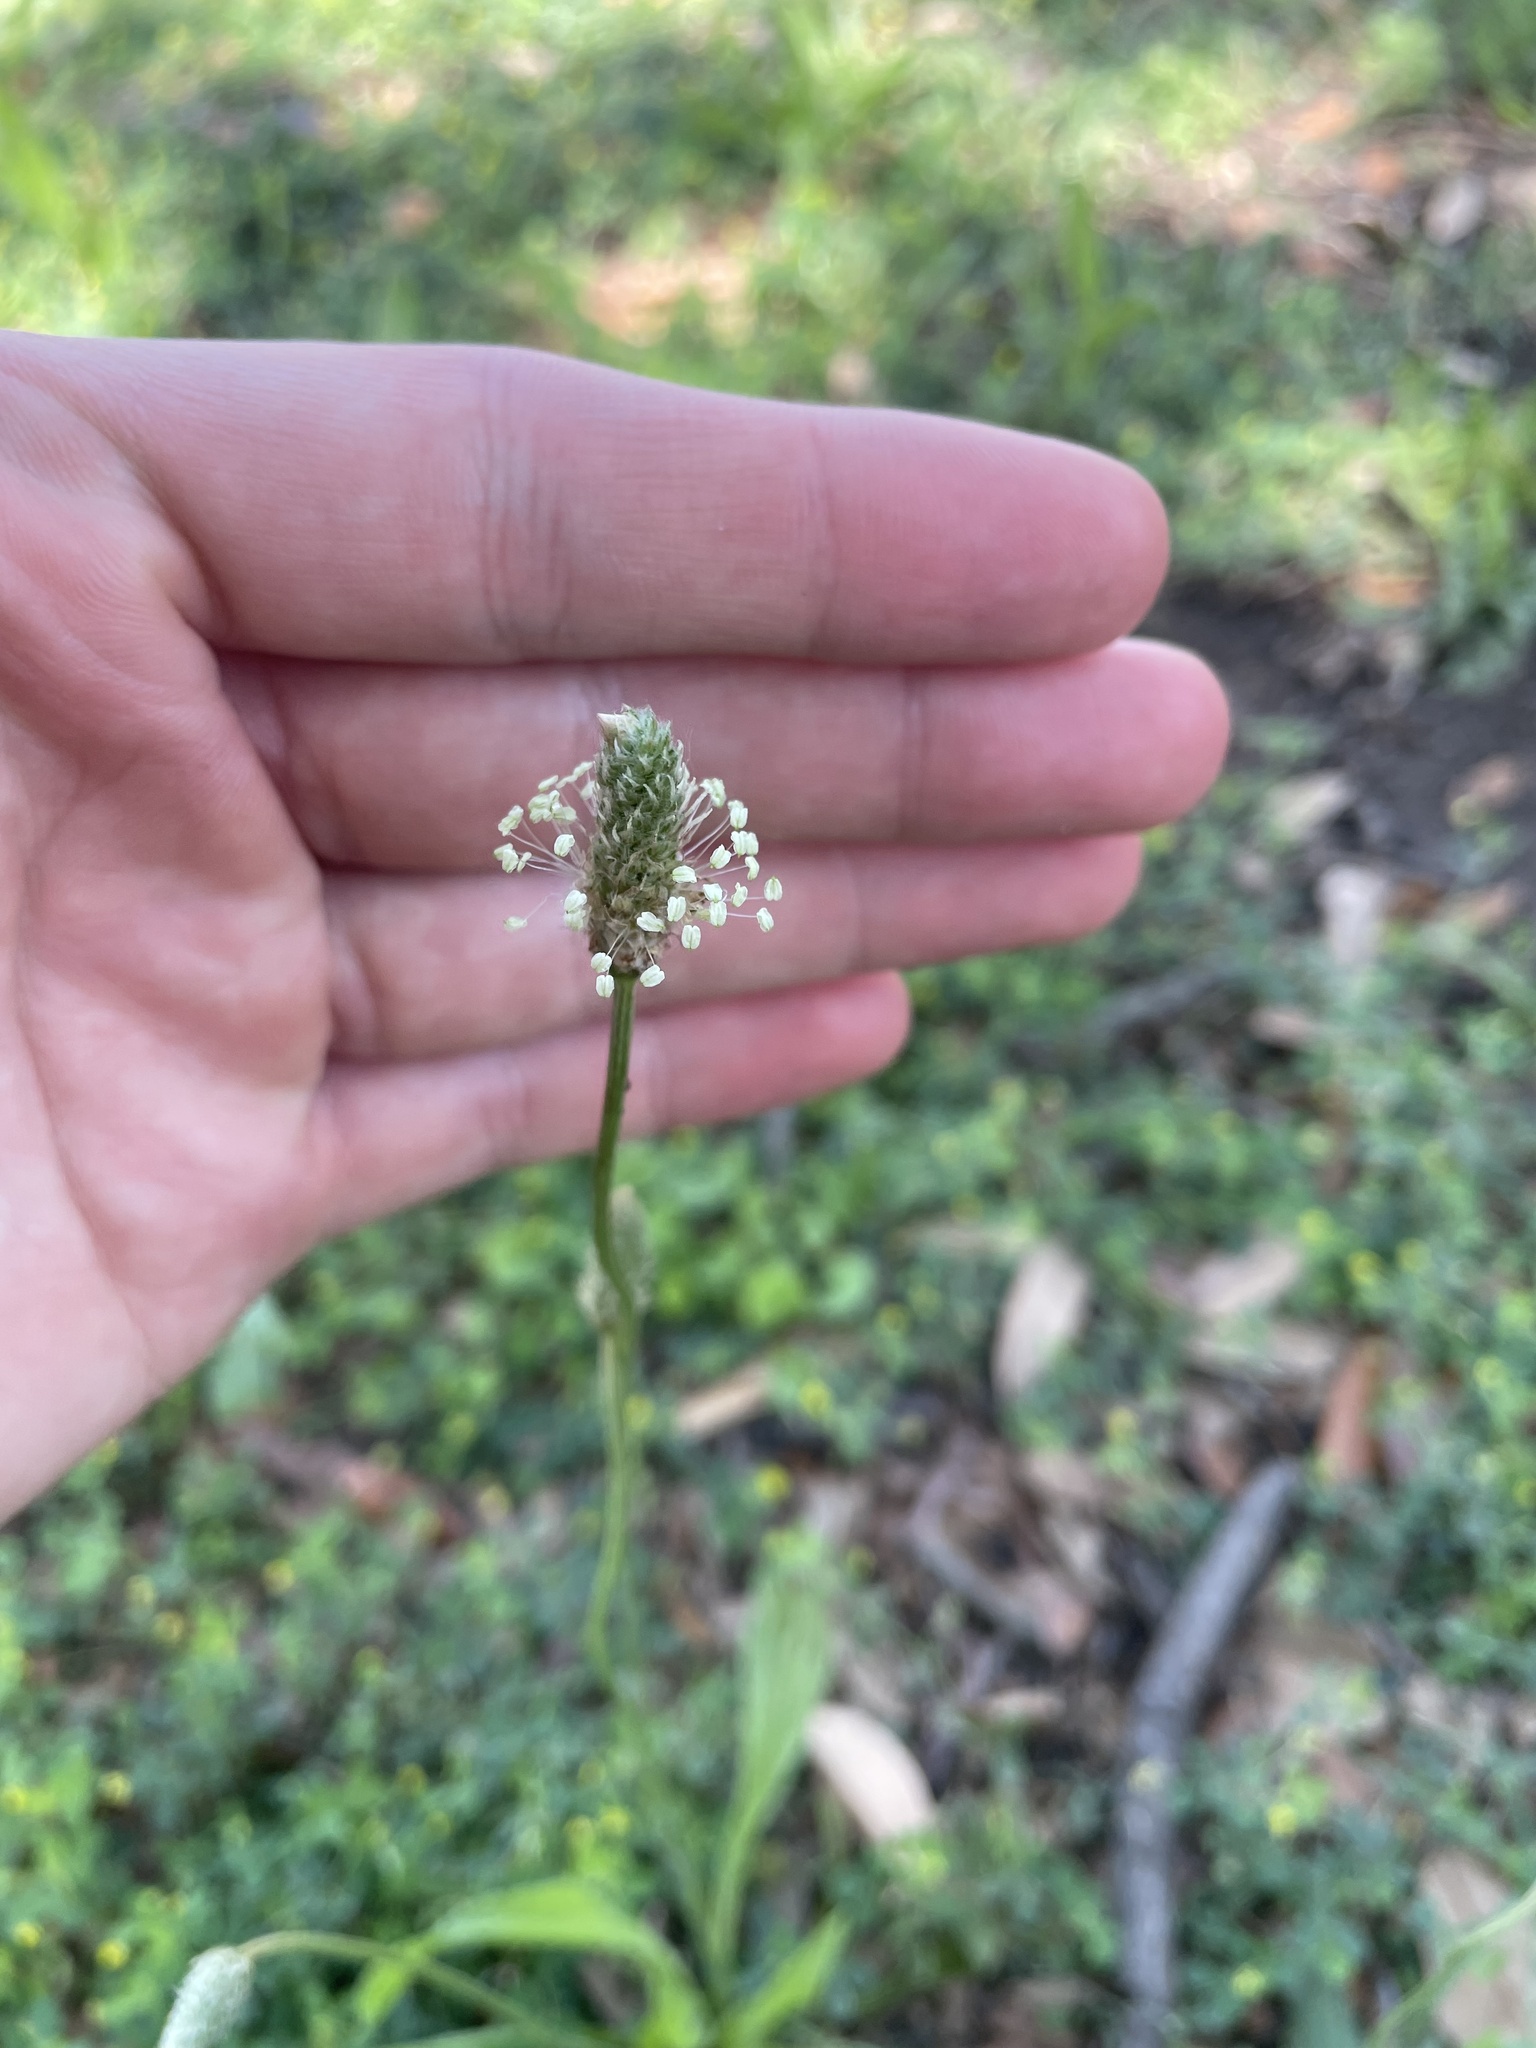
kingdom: Plantae
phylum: Tracheophyta
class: Magnoliopsida
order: Lamiales
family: Plantaginaceae
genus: Plantago
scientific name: Plantago lanceolata
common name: Ribwort plantain
